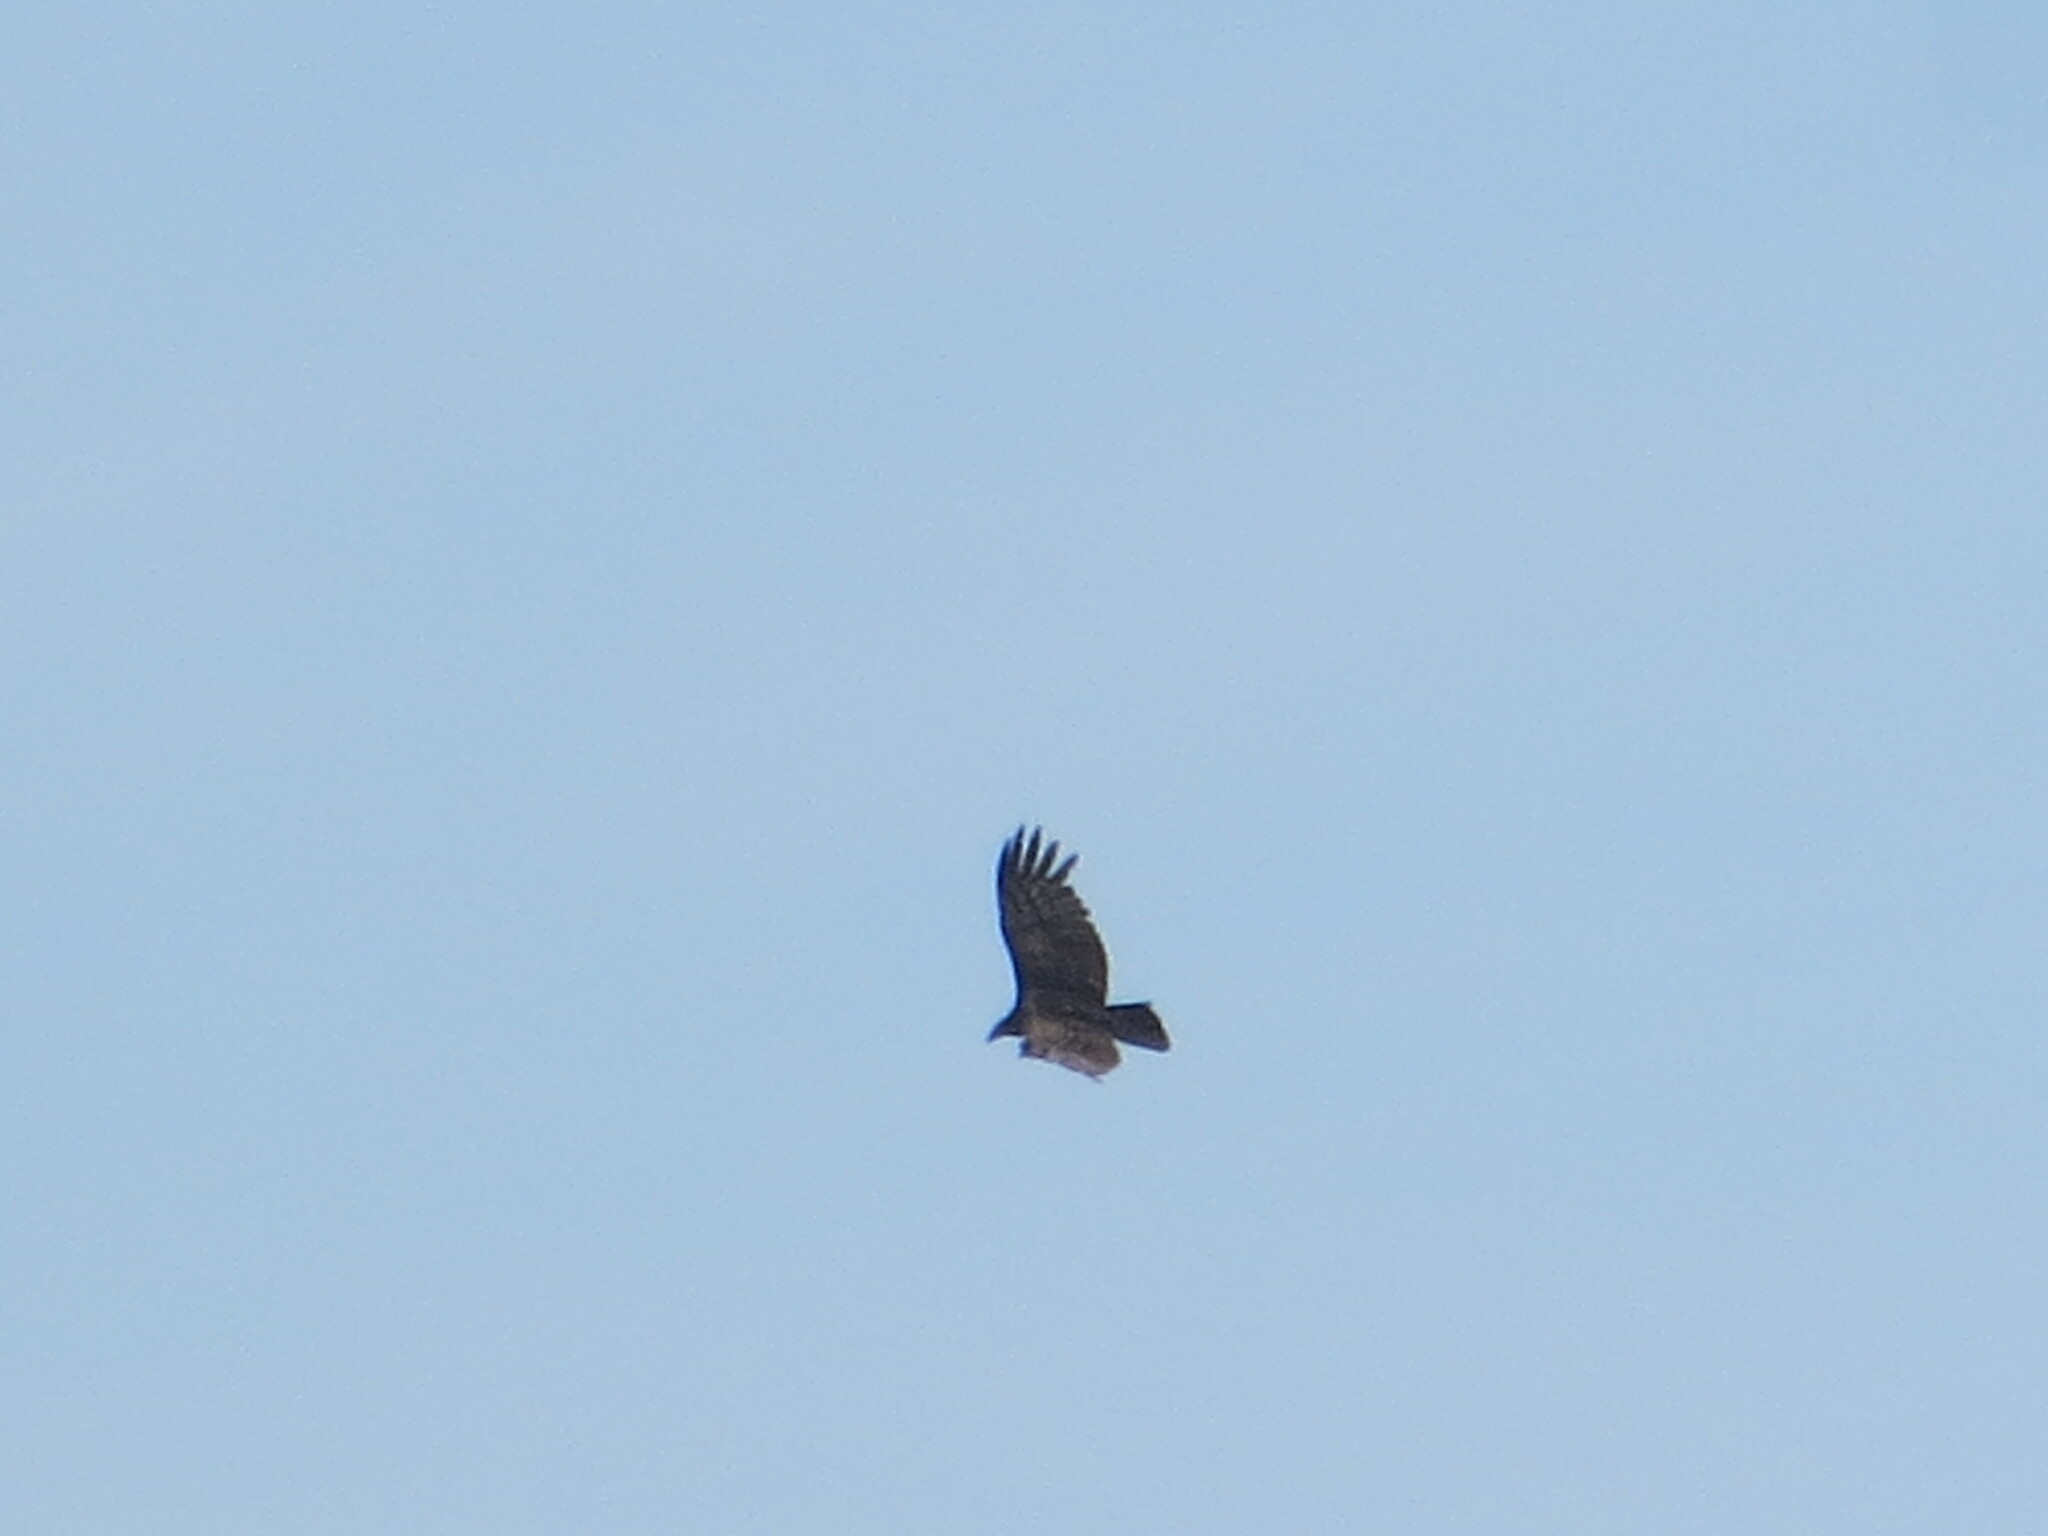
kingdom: Animalia
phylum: Chordata
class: Aves
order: Accipitriformes
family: Cathartidae
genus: Cathartes
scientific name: Cathartes aura
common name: Turkey vulture
